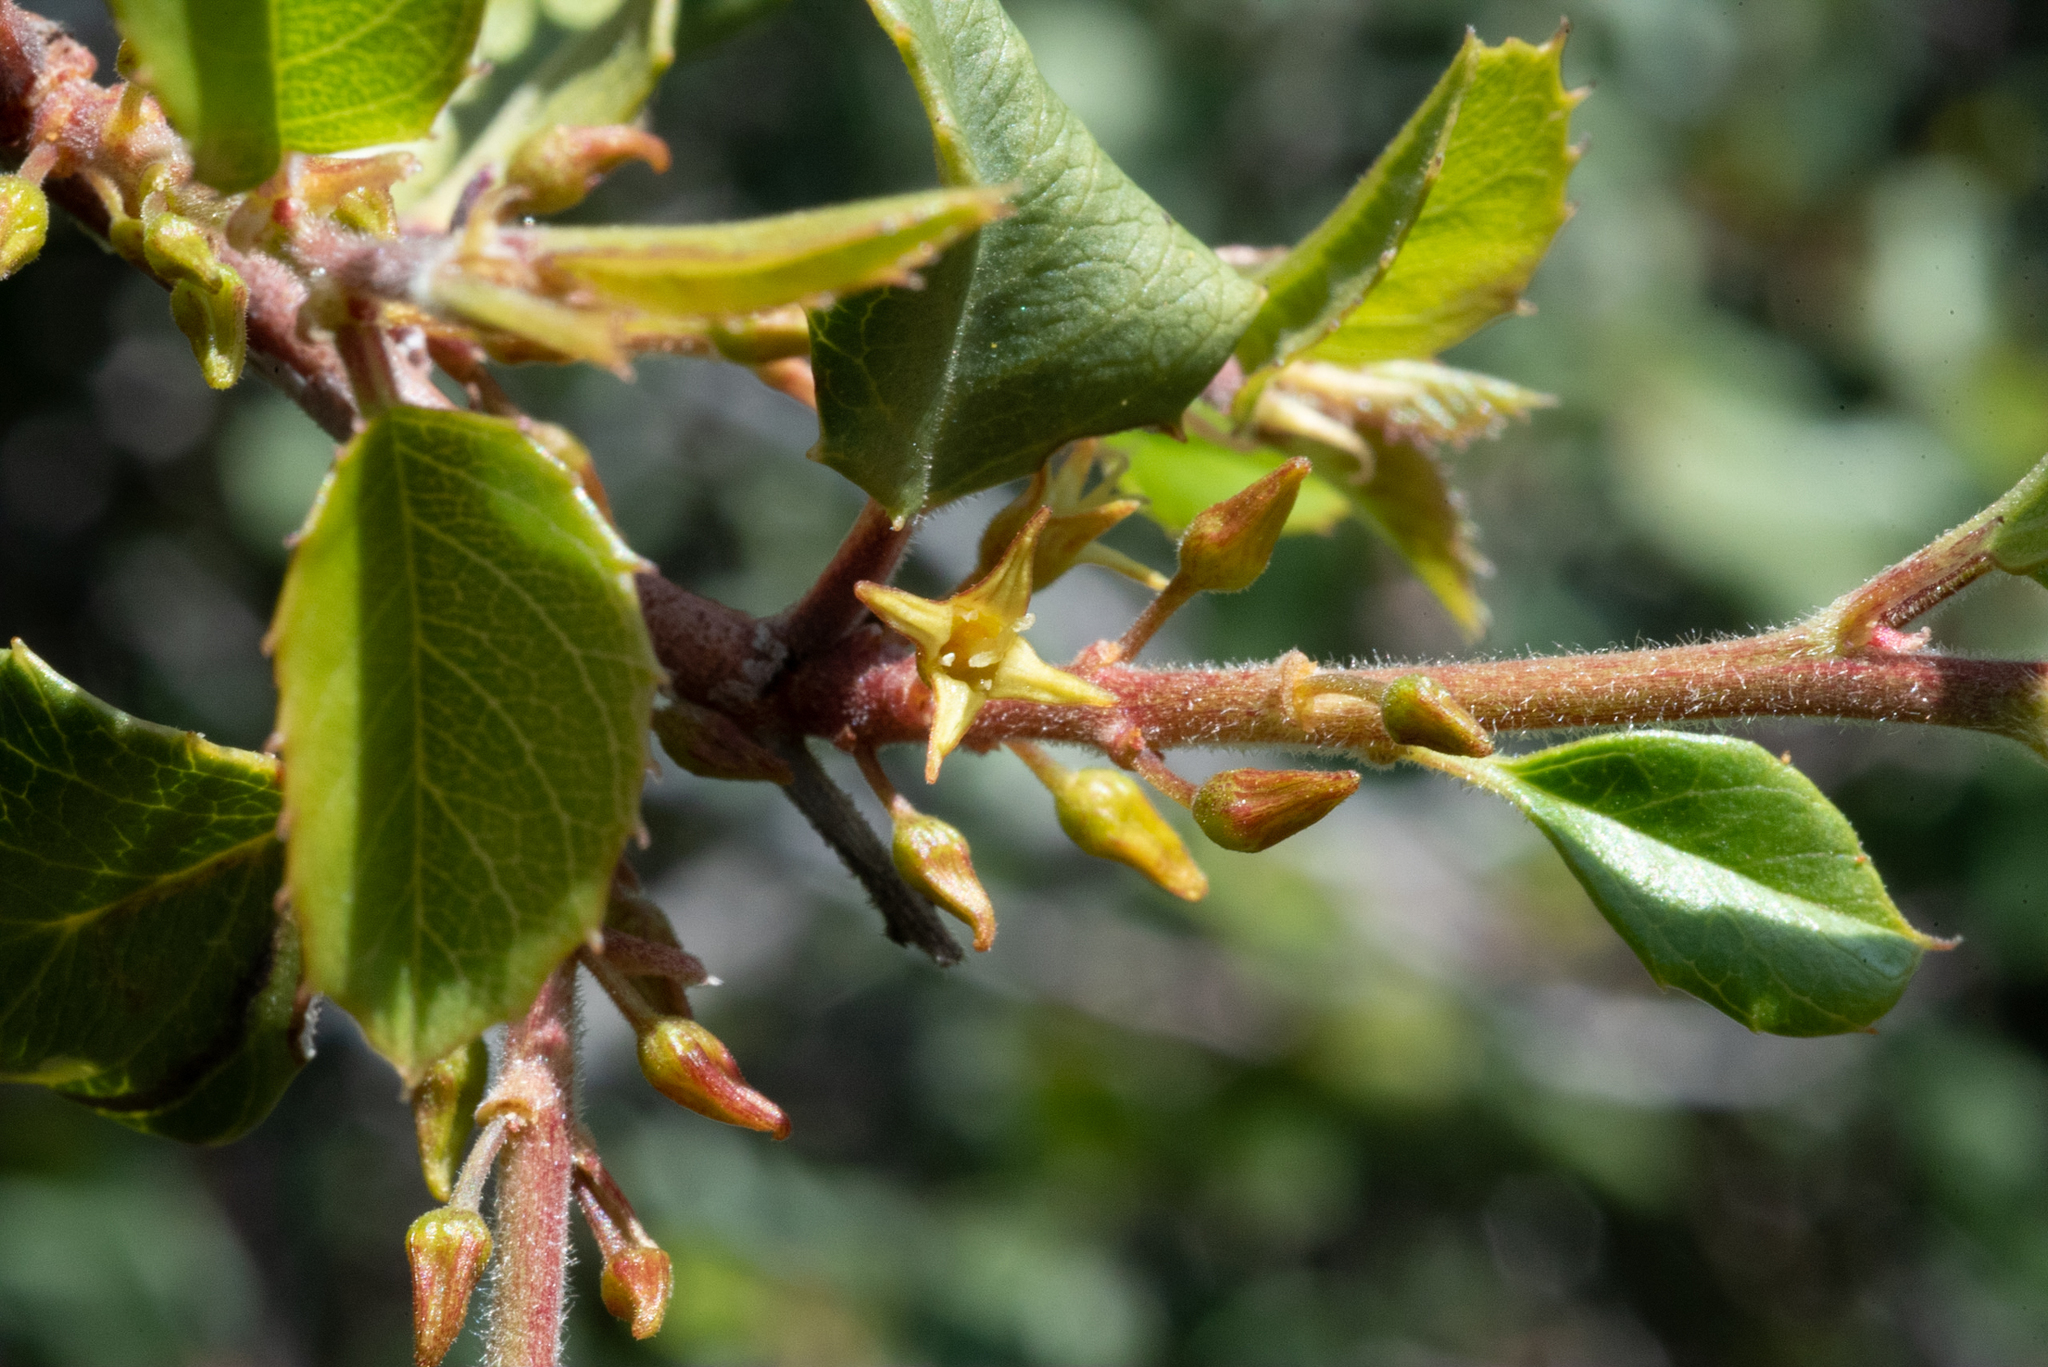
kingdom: Plantae
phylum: Tracheophyta
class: Magnoliopsida
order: Rosales
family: Rhamnaceae
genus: Endotropis
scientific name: Endotropis crocea
